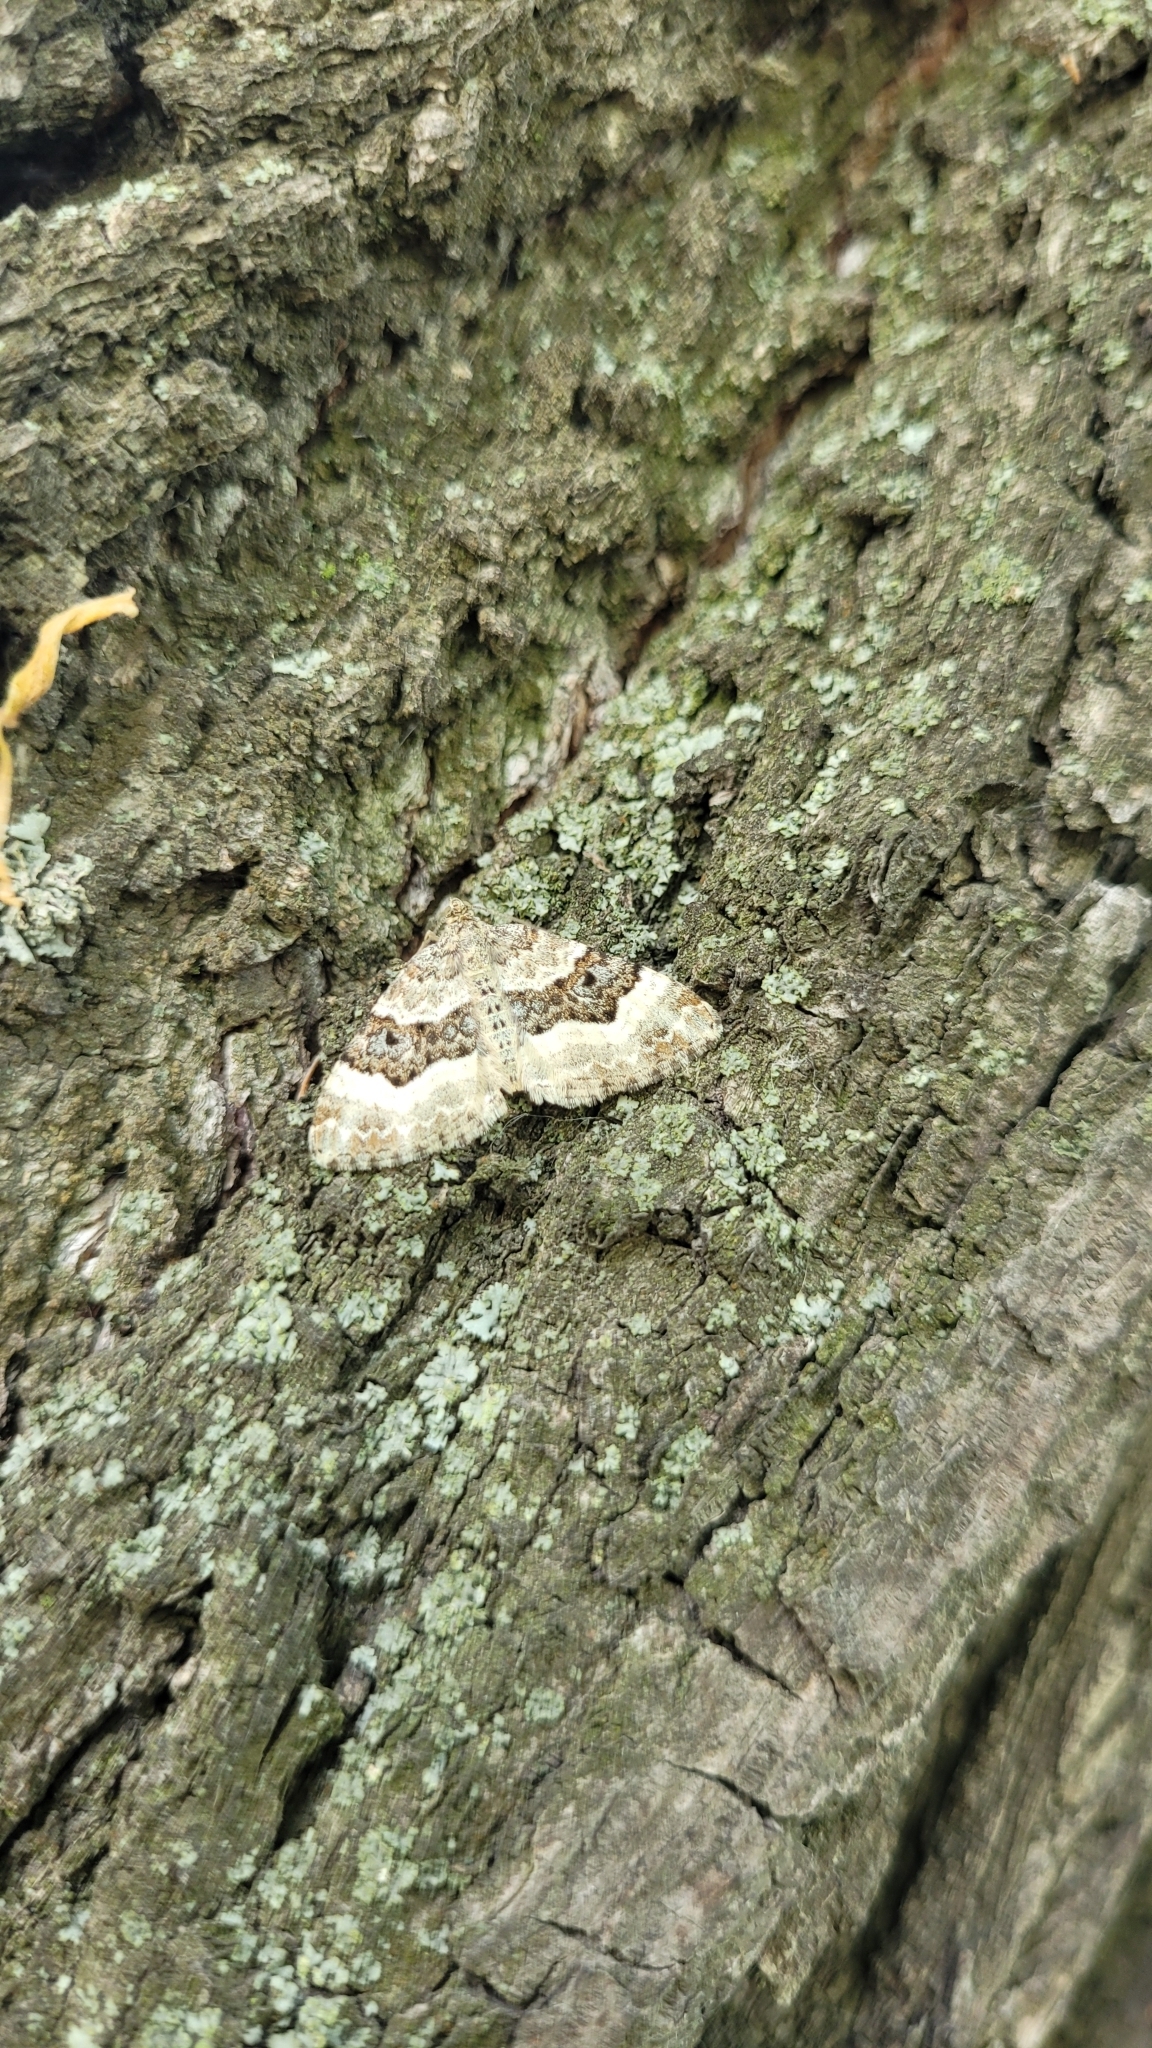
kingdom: Animalia
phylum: Arthropoda
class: Insecta
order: Lepidoptera
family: Geometridae
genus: Epirrhoe
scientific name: Epirrhoe alternata
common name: Common carpet
